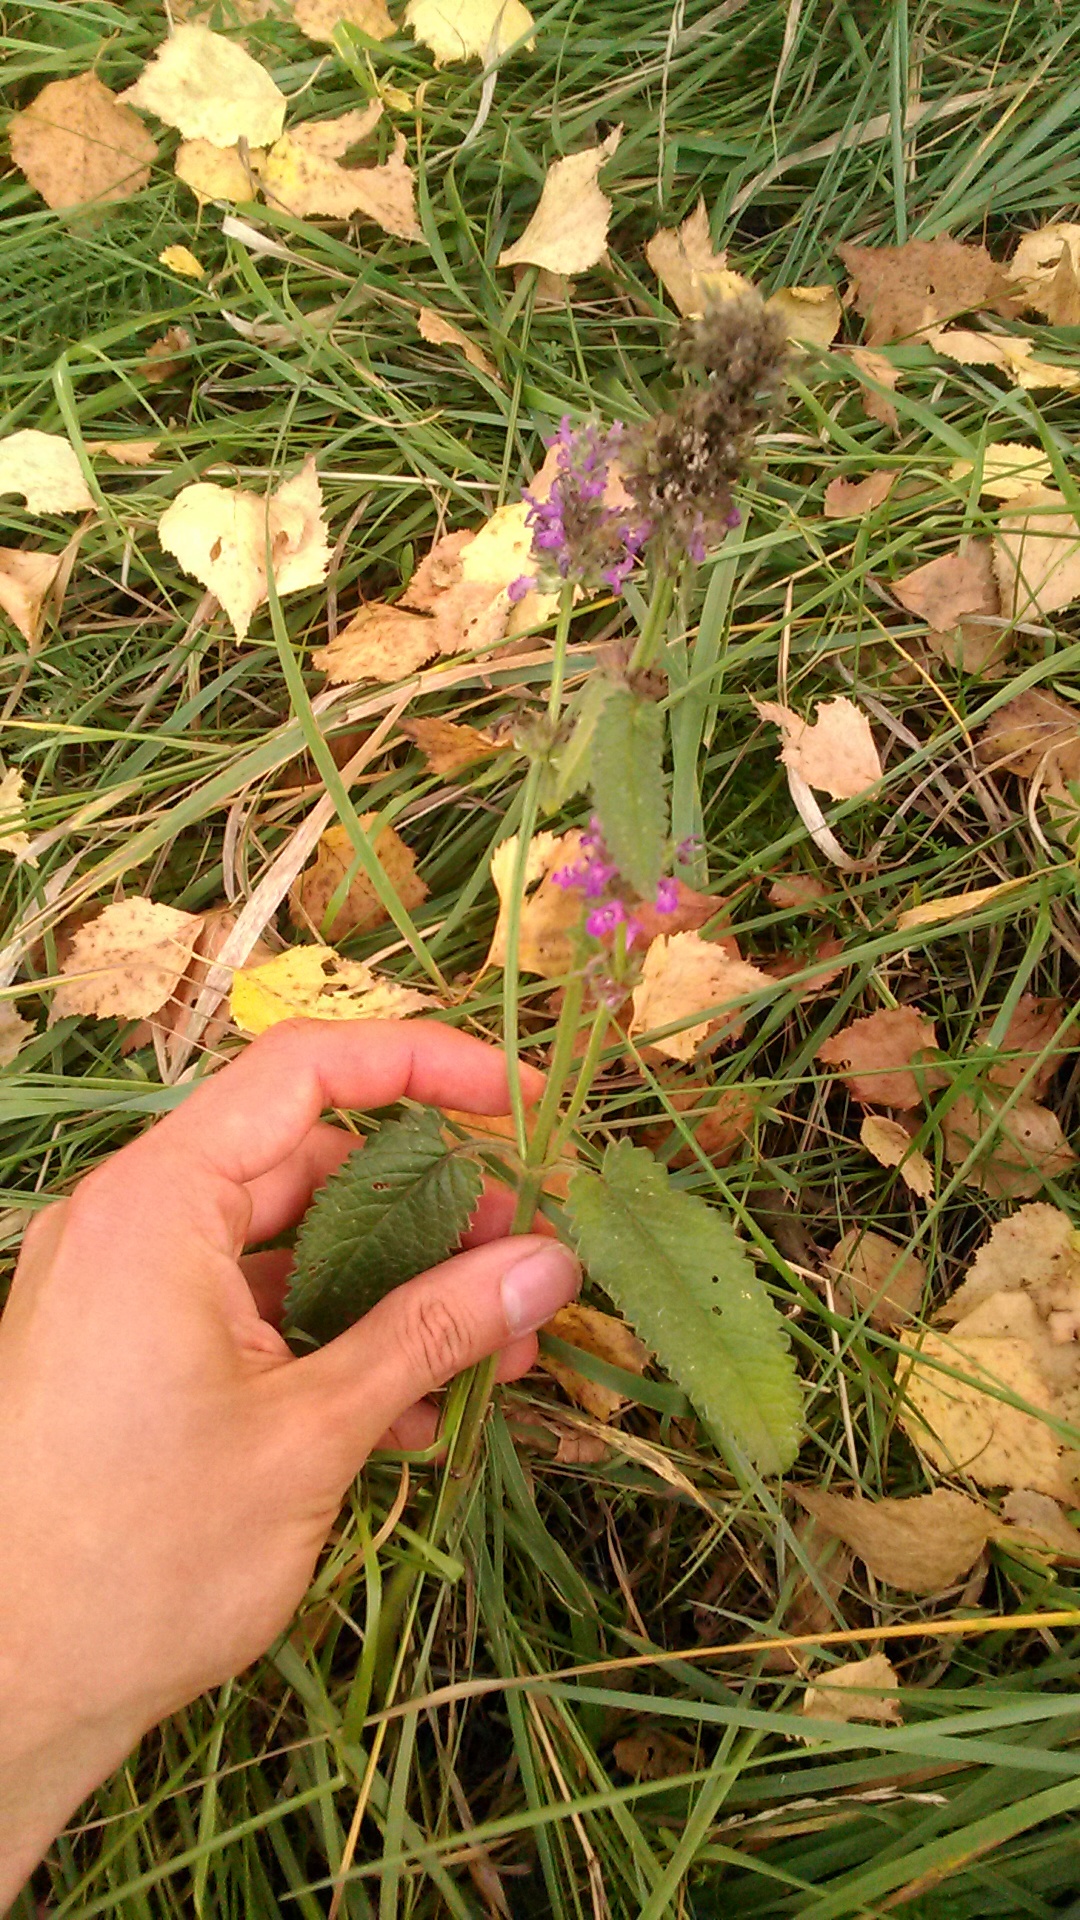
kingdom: Plantae
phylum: Tracheophyta
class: Magnoliopsida
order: Lamiales
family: Lamiaceae
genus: Betonica
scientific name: Betonica officinalis
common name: Bishop's-wort
